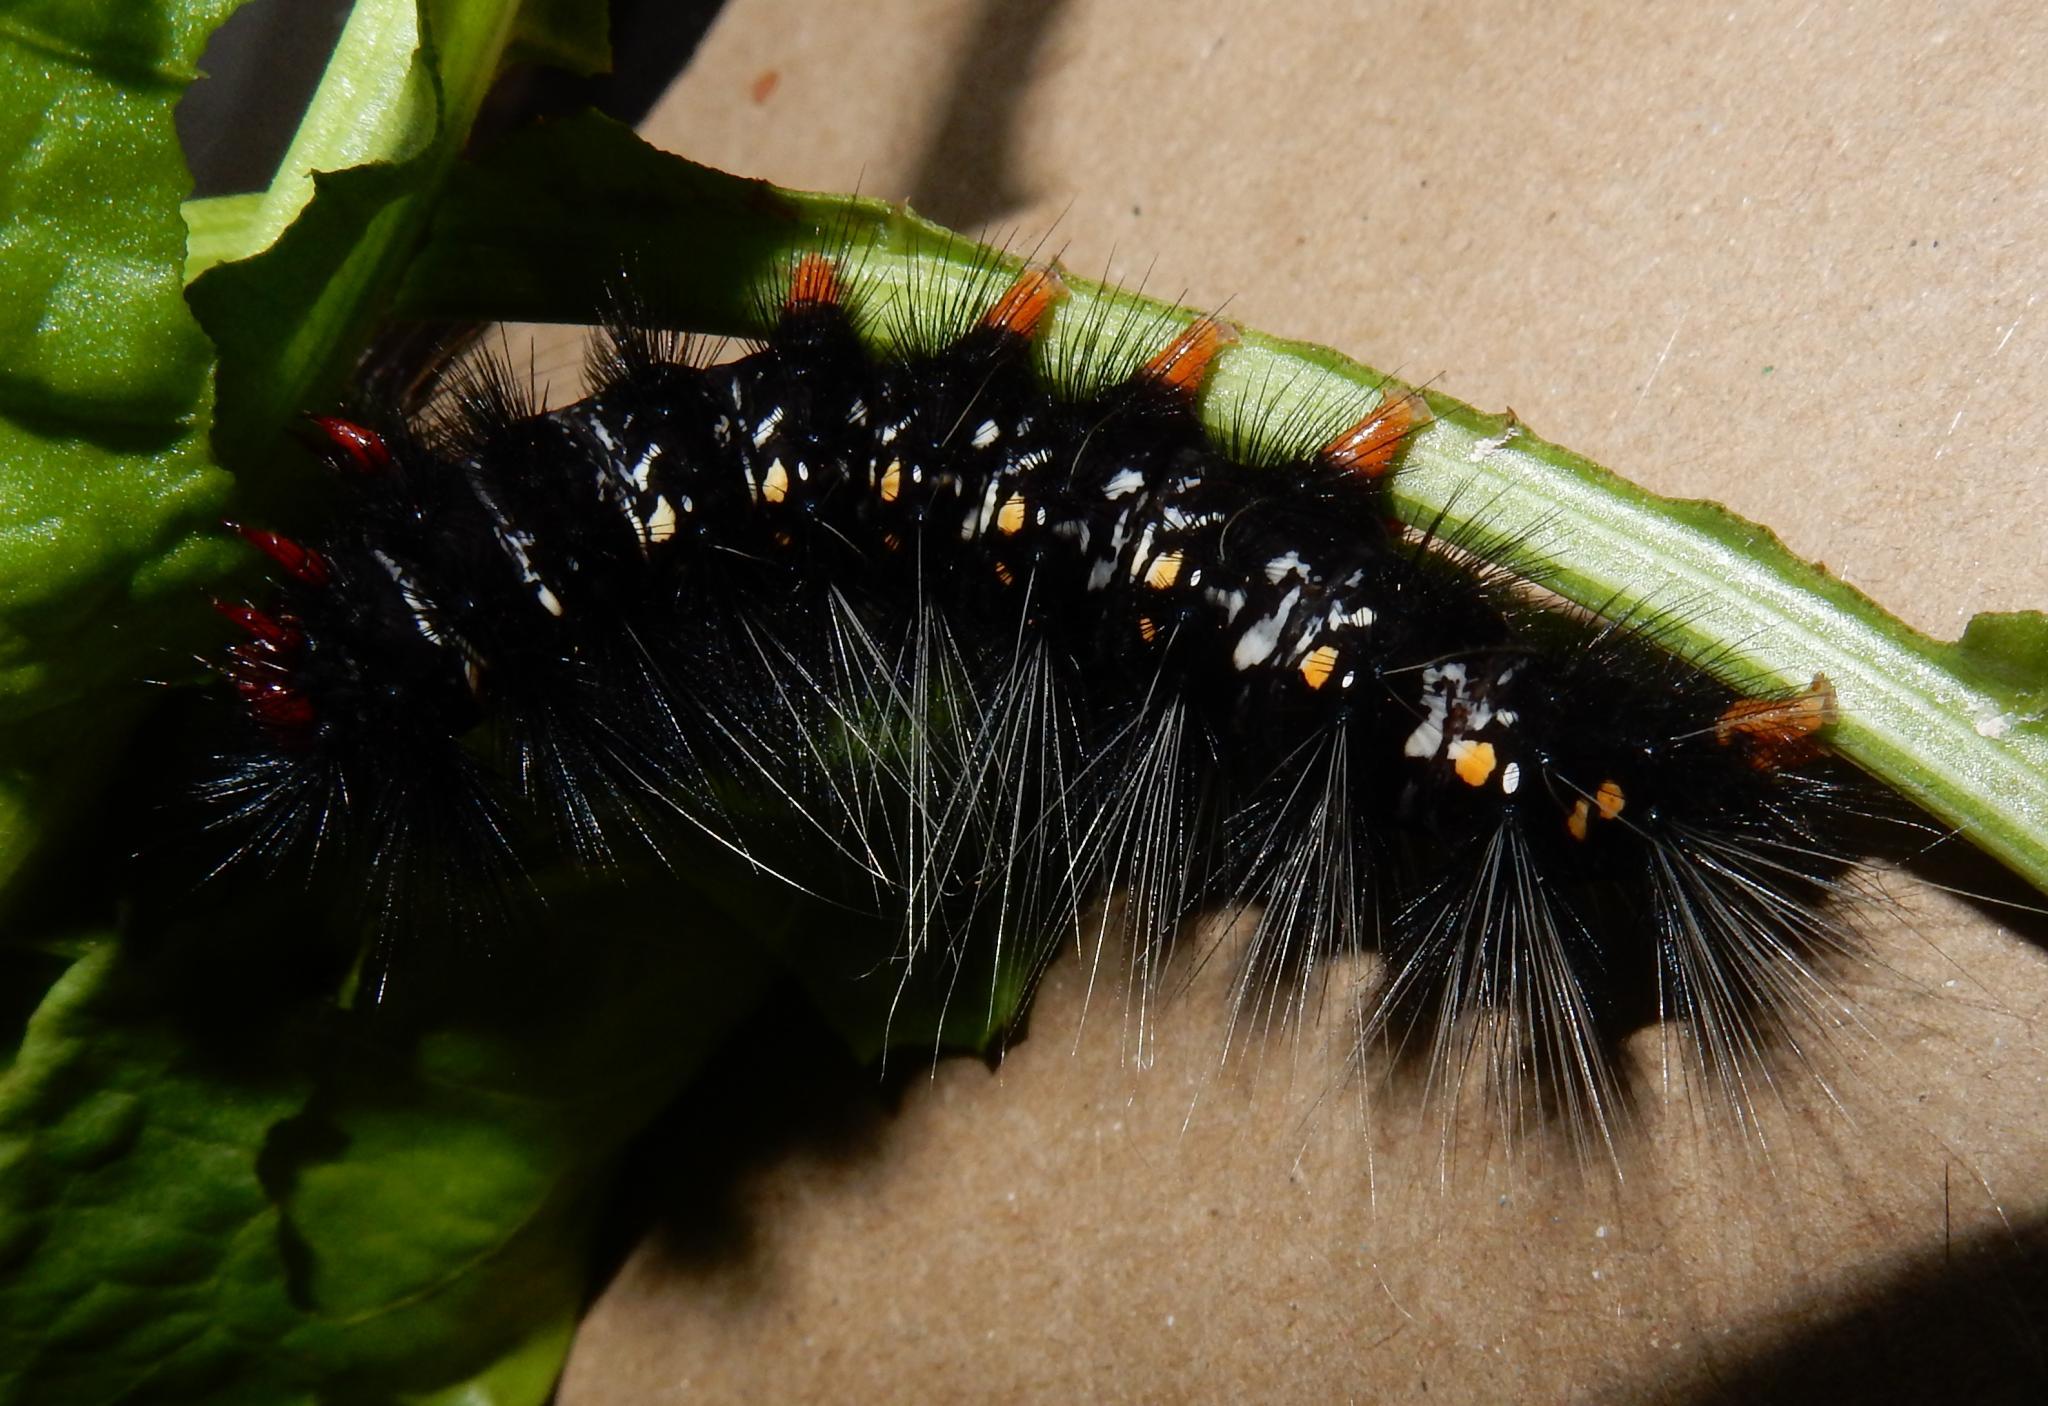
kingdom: Animalia
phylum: Arthropoda
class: Insecta
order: Lepidoptera
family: Erebidae
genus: Afromurzinia
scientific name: Afromurzinia lutescens
